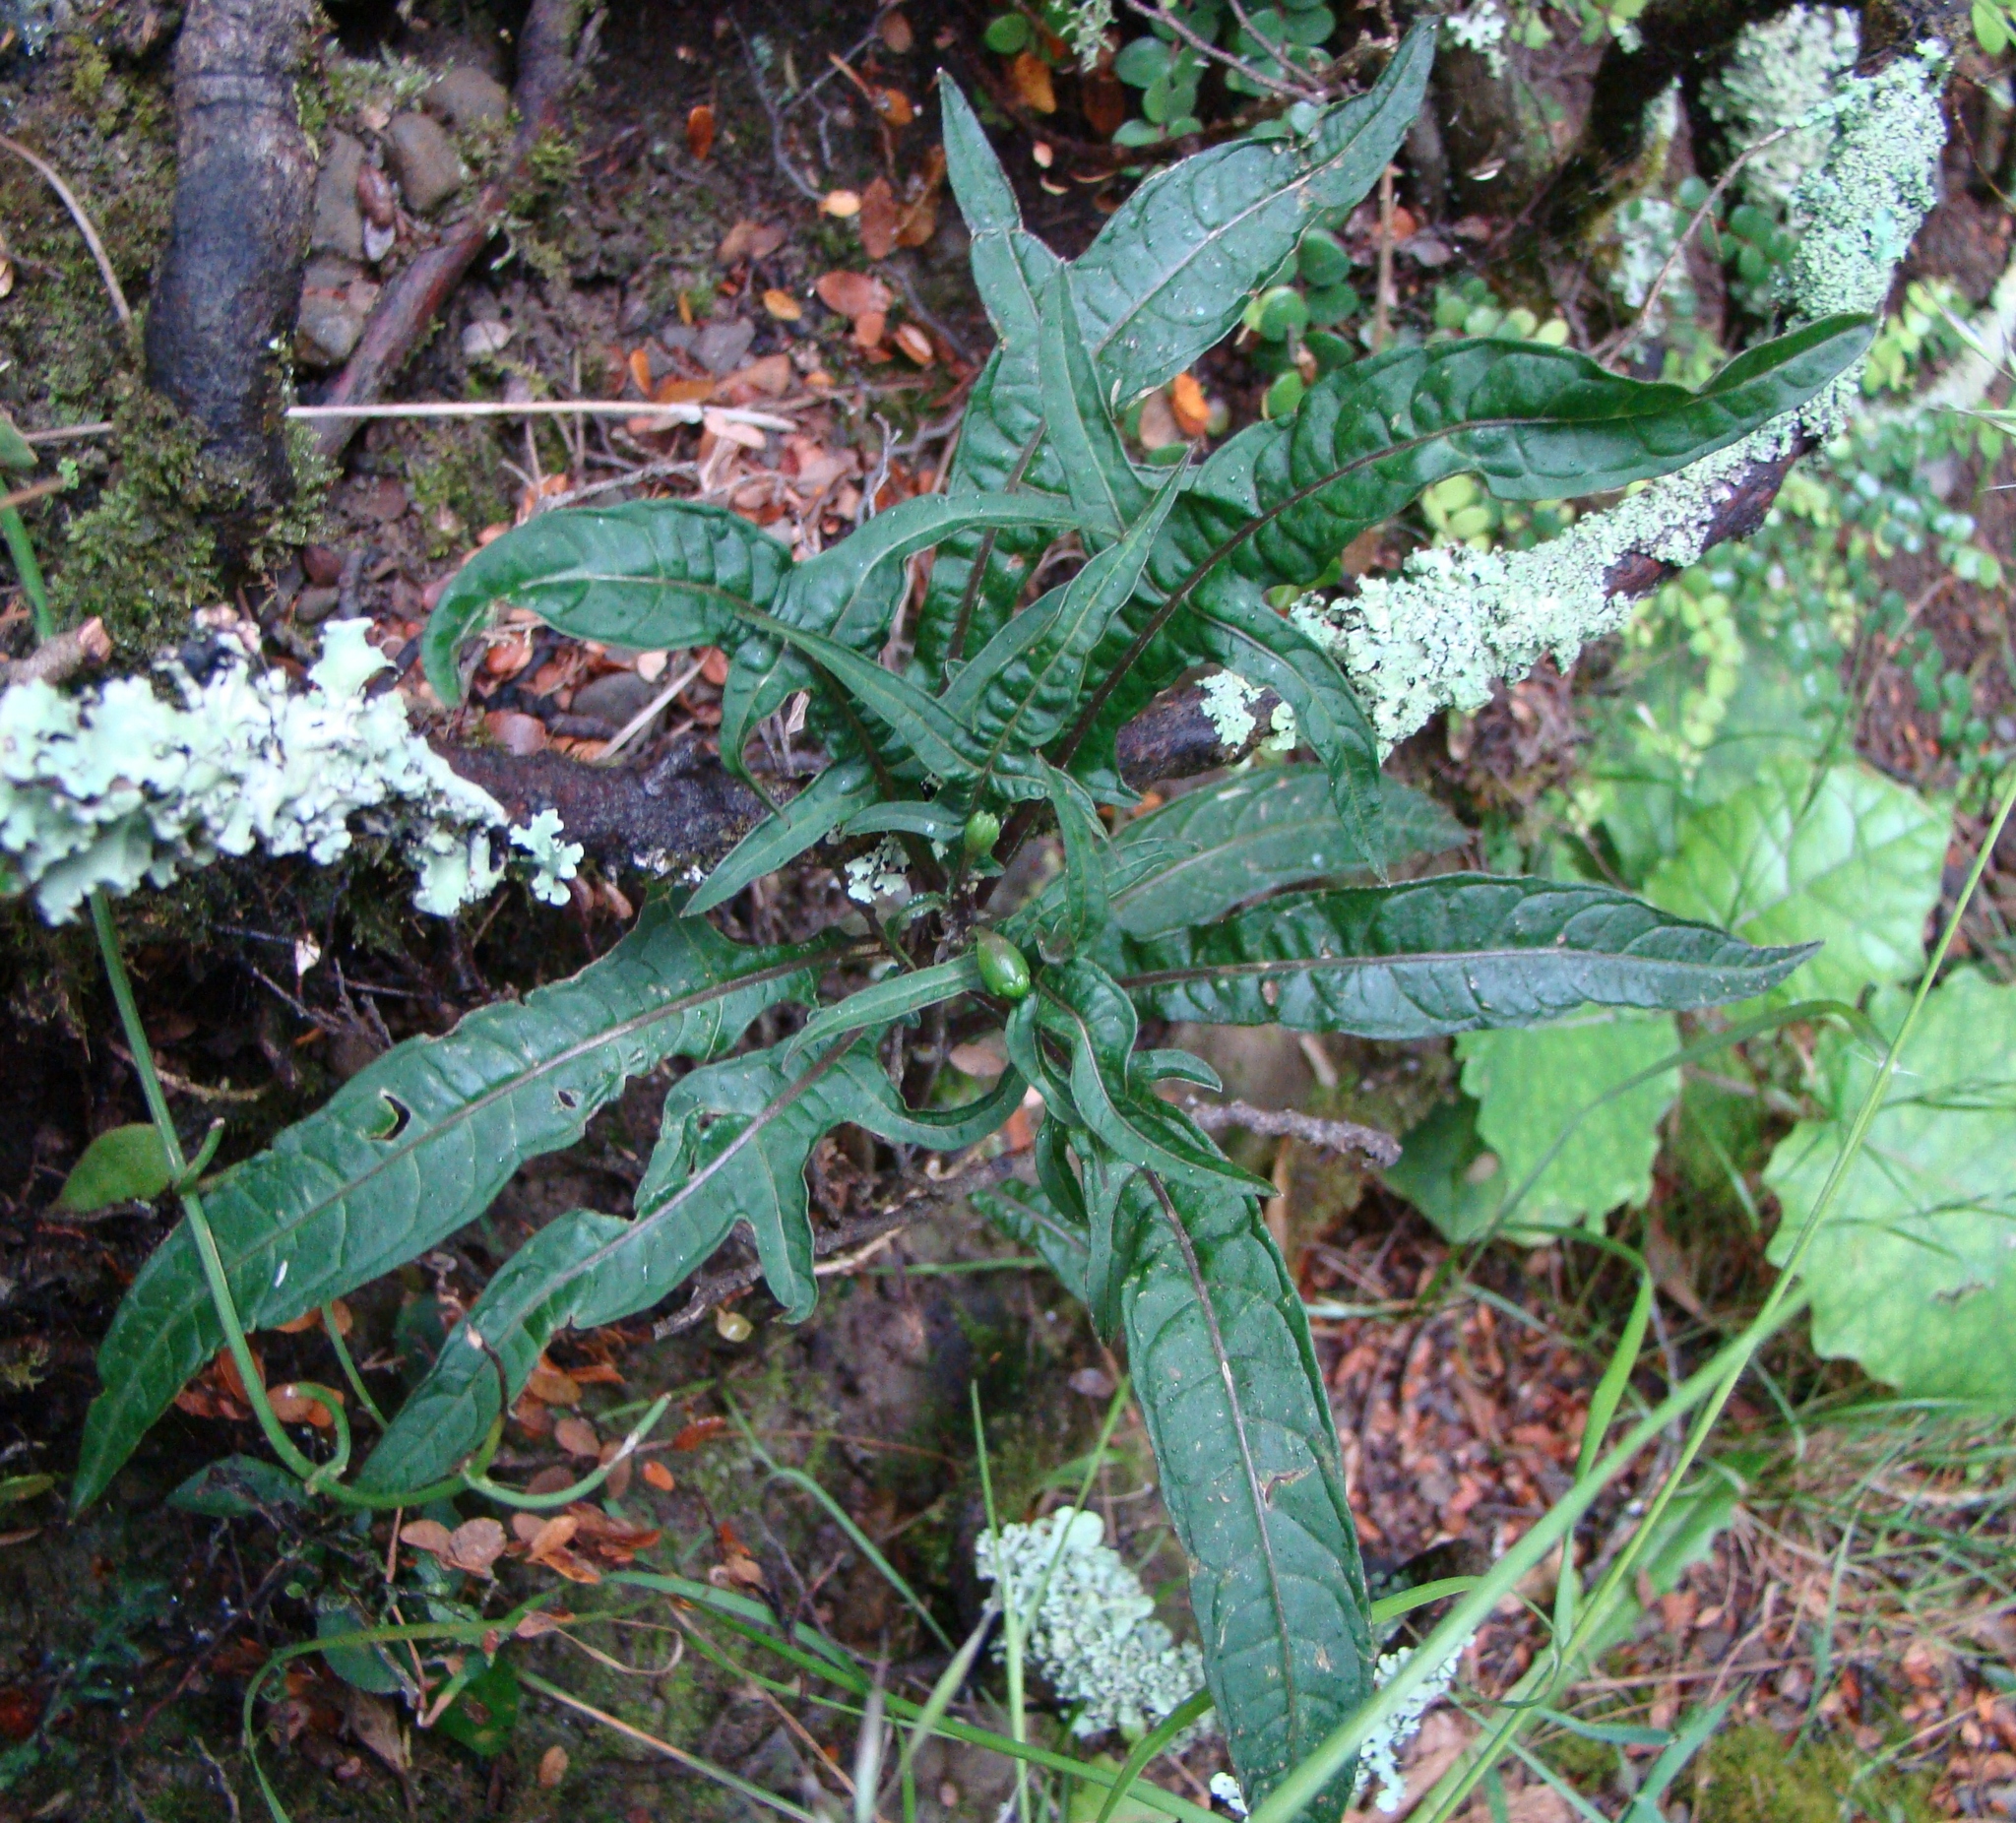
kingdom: Plantae
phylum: Tracheophyta
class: Magnoliopsida
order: Solanales
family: Solanaceae
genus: Solanum
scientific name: Solanum laciniatum
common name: Kangaroo-apple
